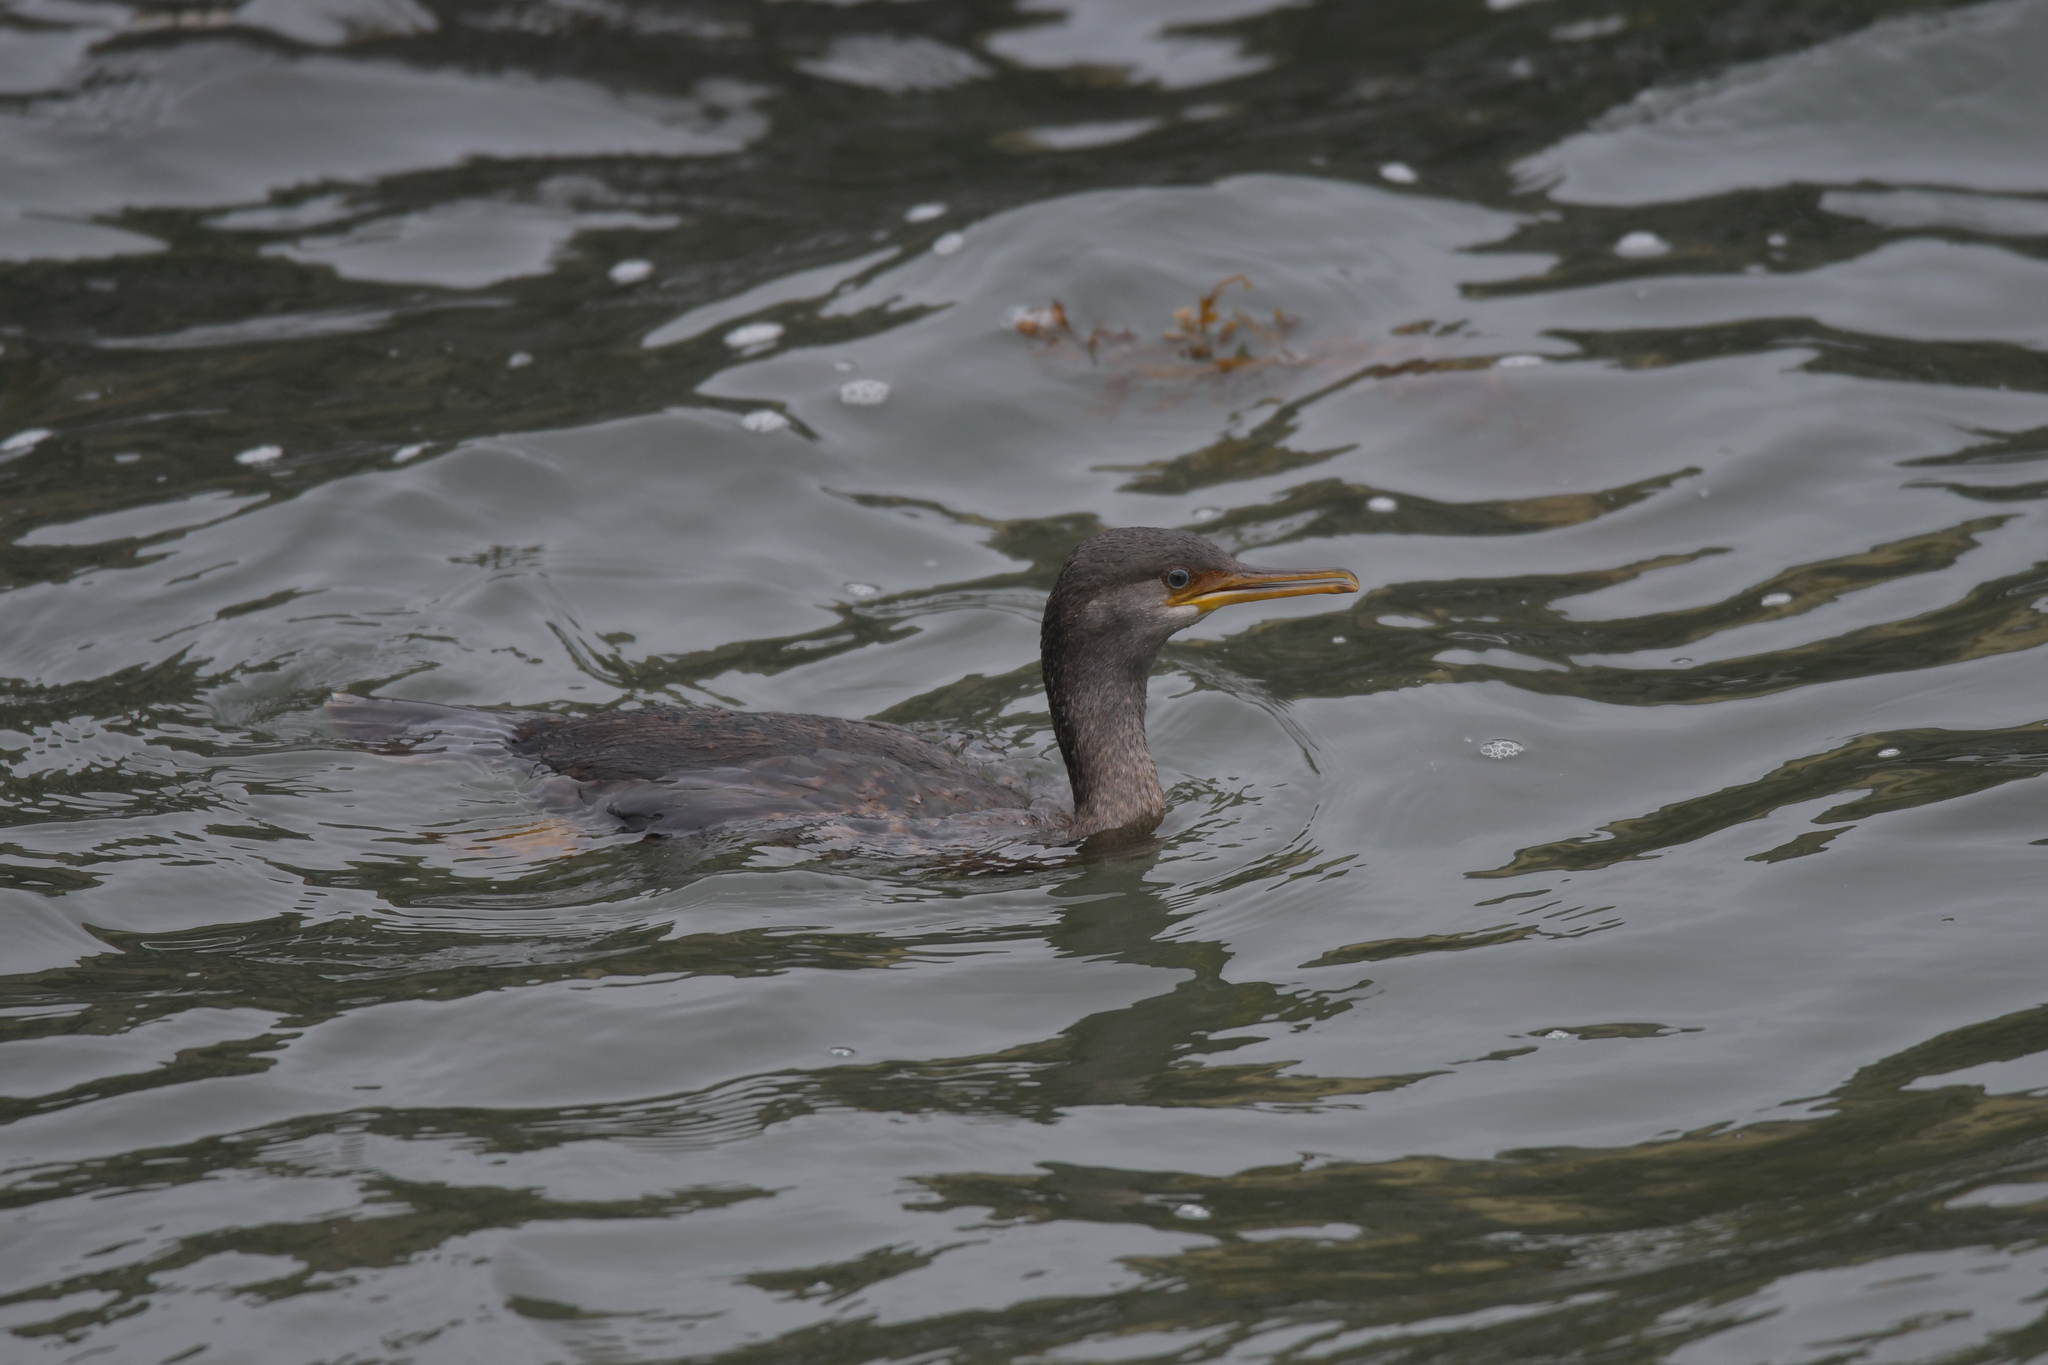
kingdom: Animalia
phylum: Chordata
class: Aves
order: Suliformes
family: Phalacrocoracidae
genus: Phalacrocorax
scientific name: Phalacrocorax featherstoni
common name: Pitt shag
